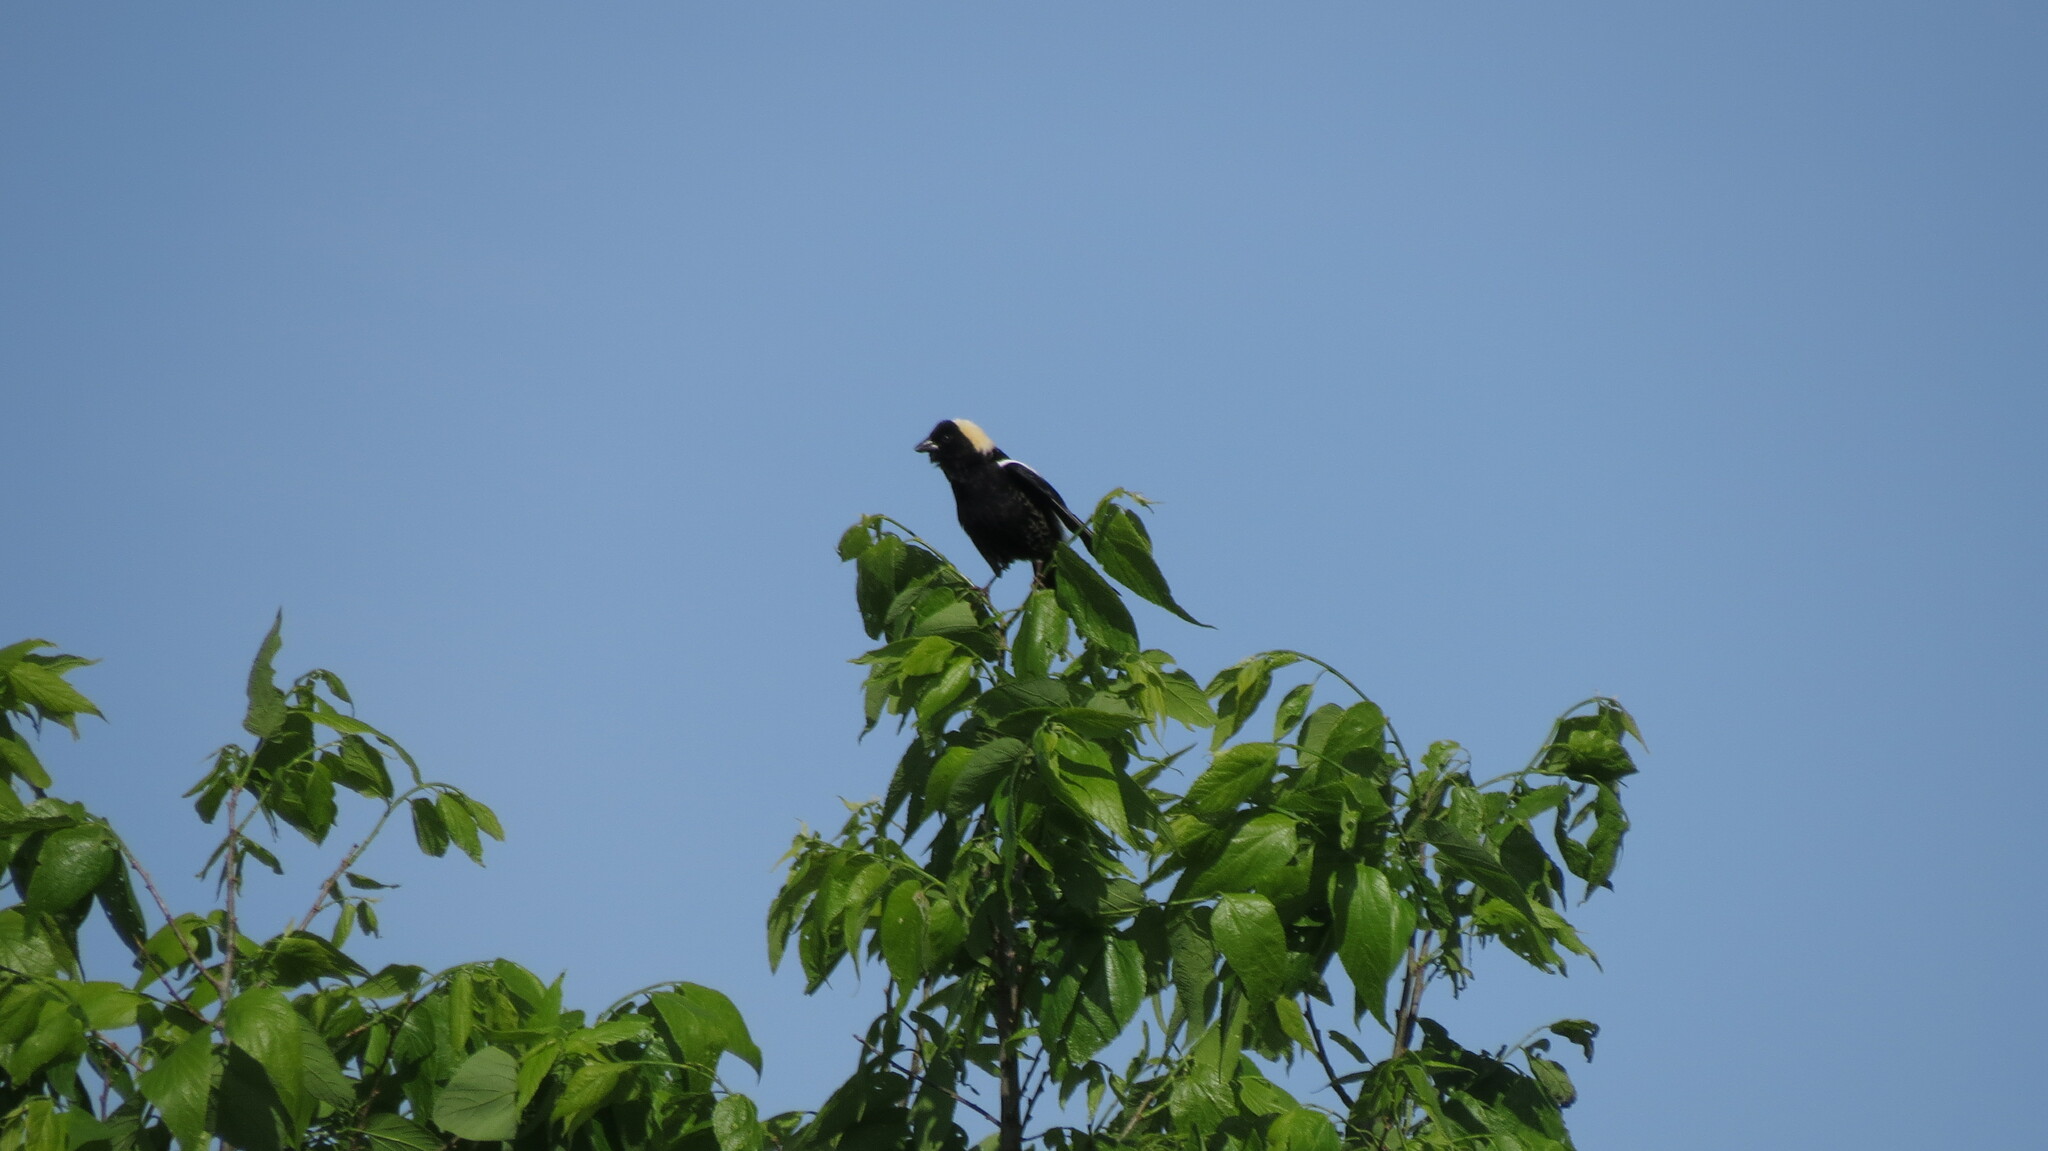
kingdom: Animalia
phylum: Chordata
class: Aves
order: Passeriformes
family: Icteridae
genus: Dolichonyx
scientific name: Dolichonyx oryzivorus
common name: Bobolink
